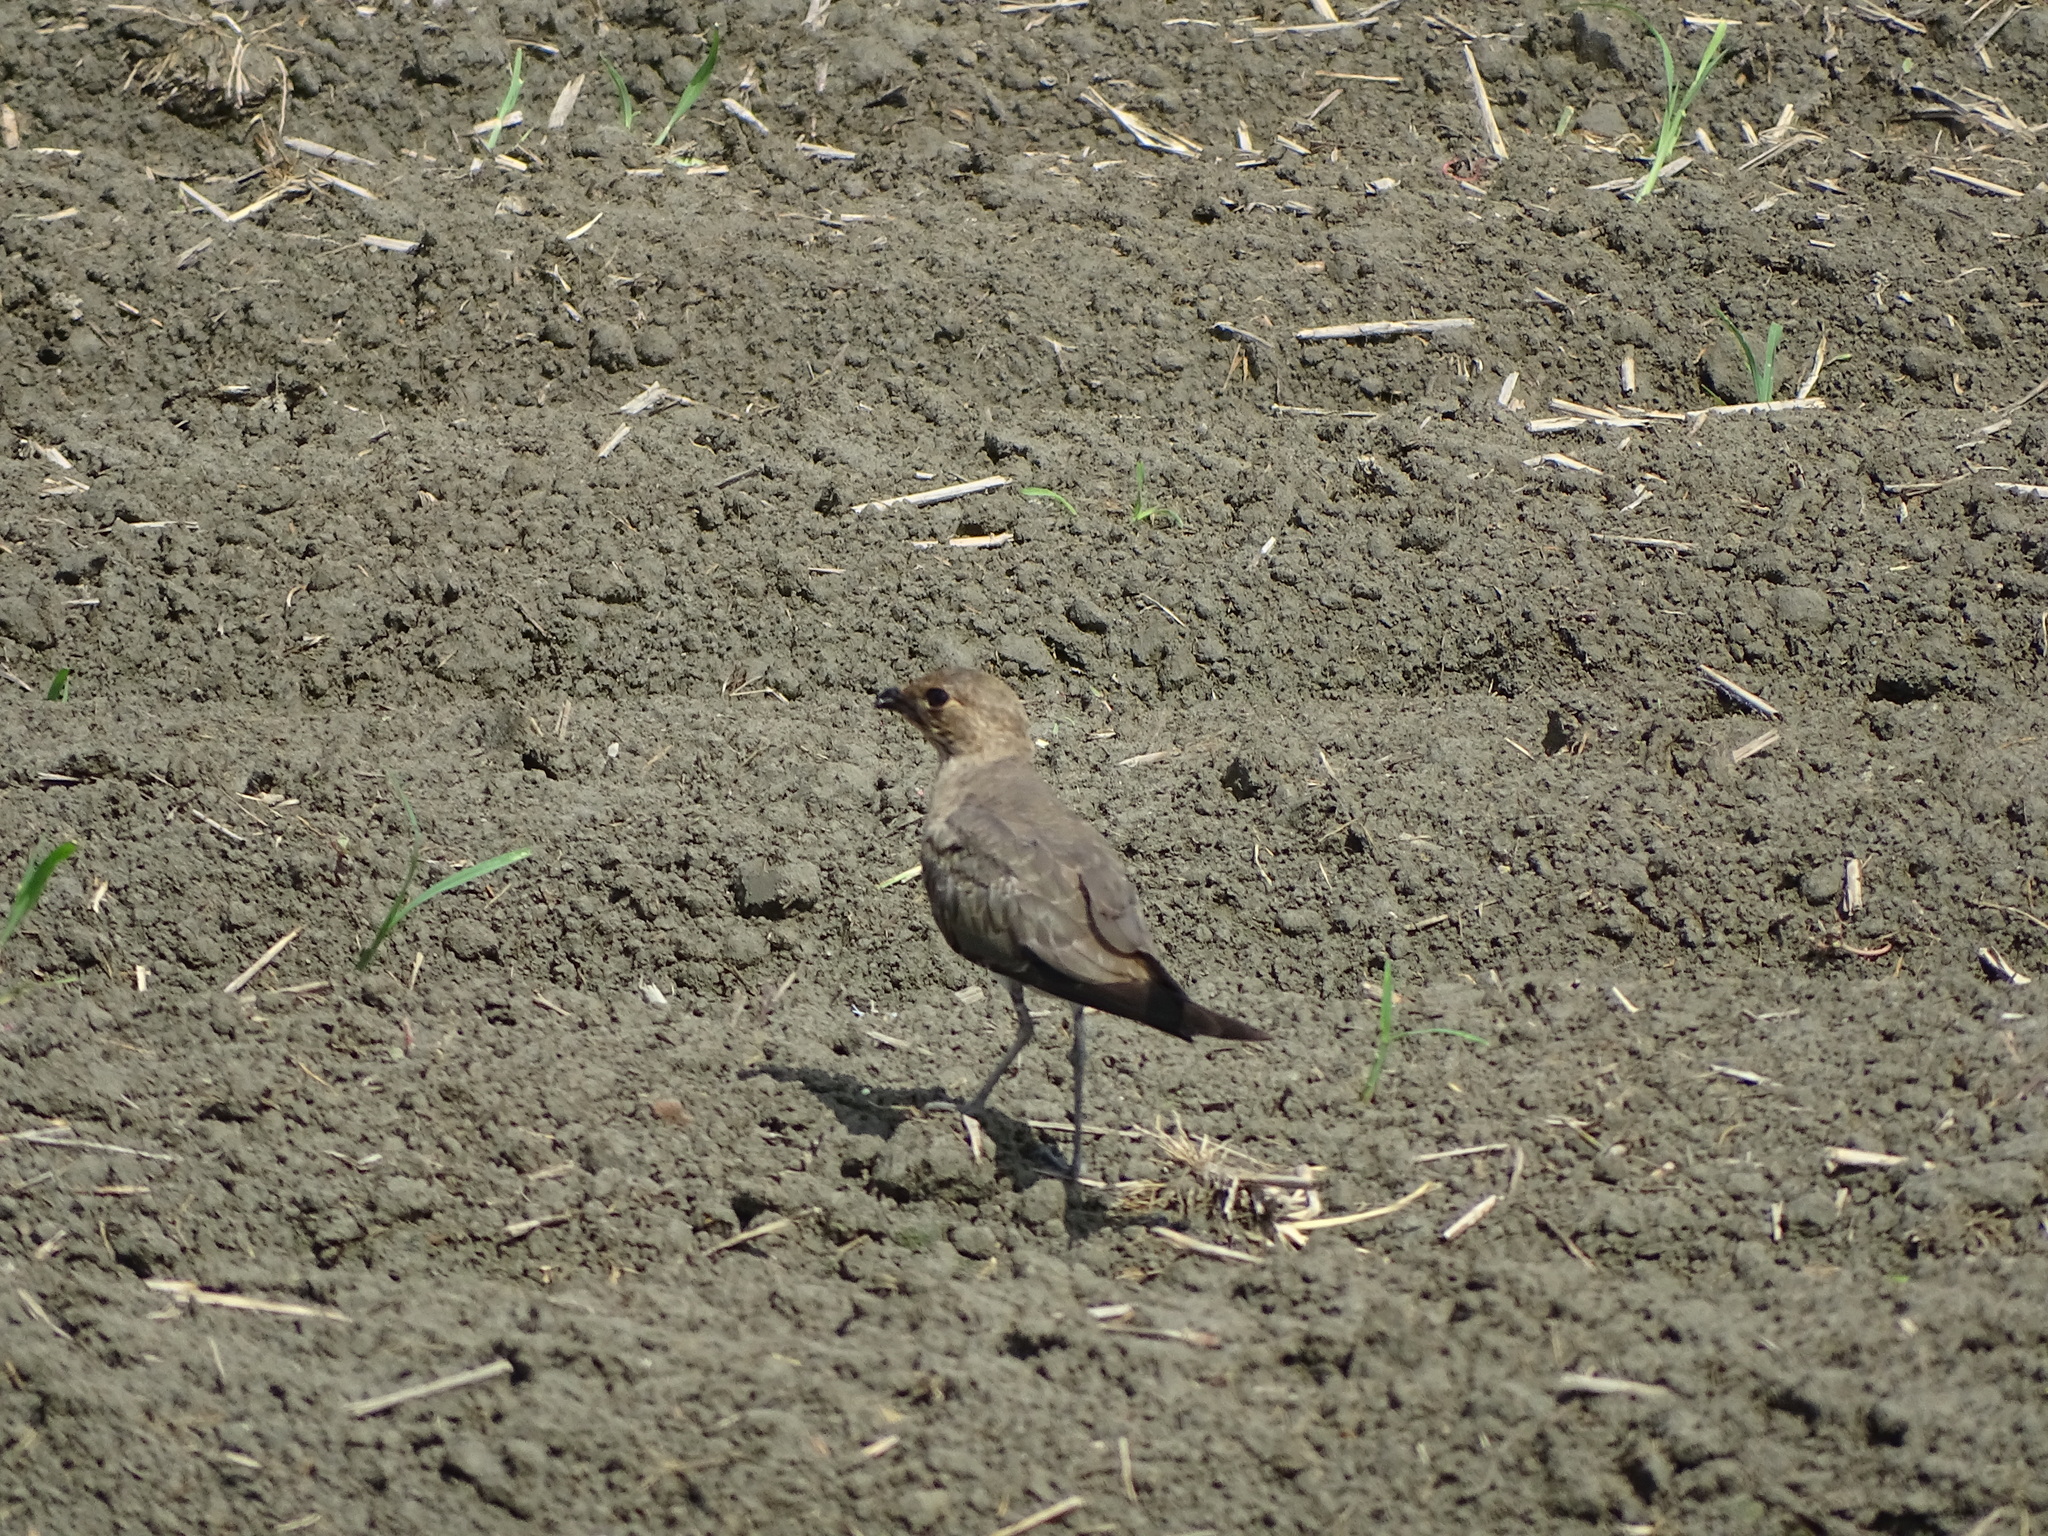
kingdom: Animalia
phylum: Chordata
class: Aves
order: Charadriiformes
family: Glareolidae
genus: Glareola
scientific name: Glareola maldivarum
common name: Oriental pratincole
